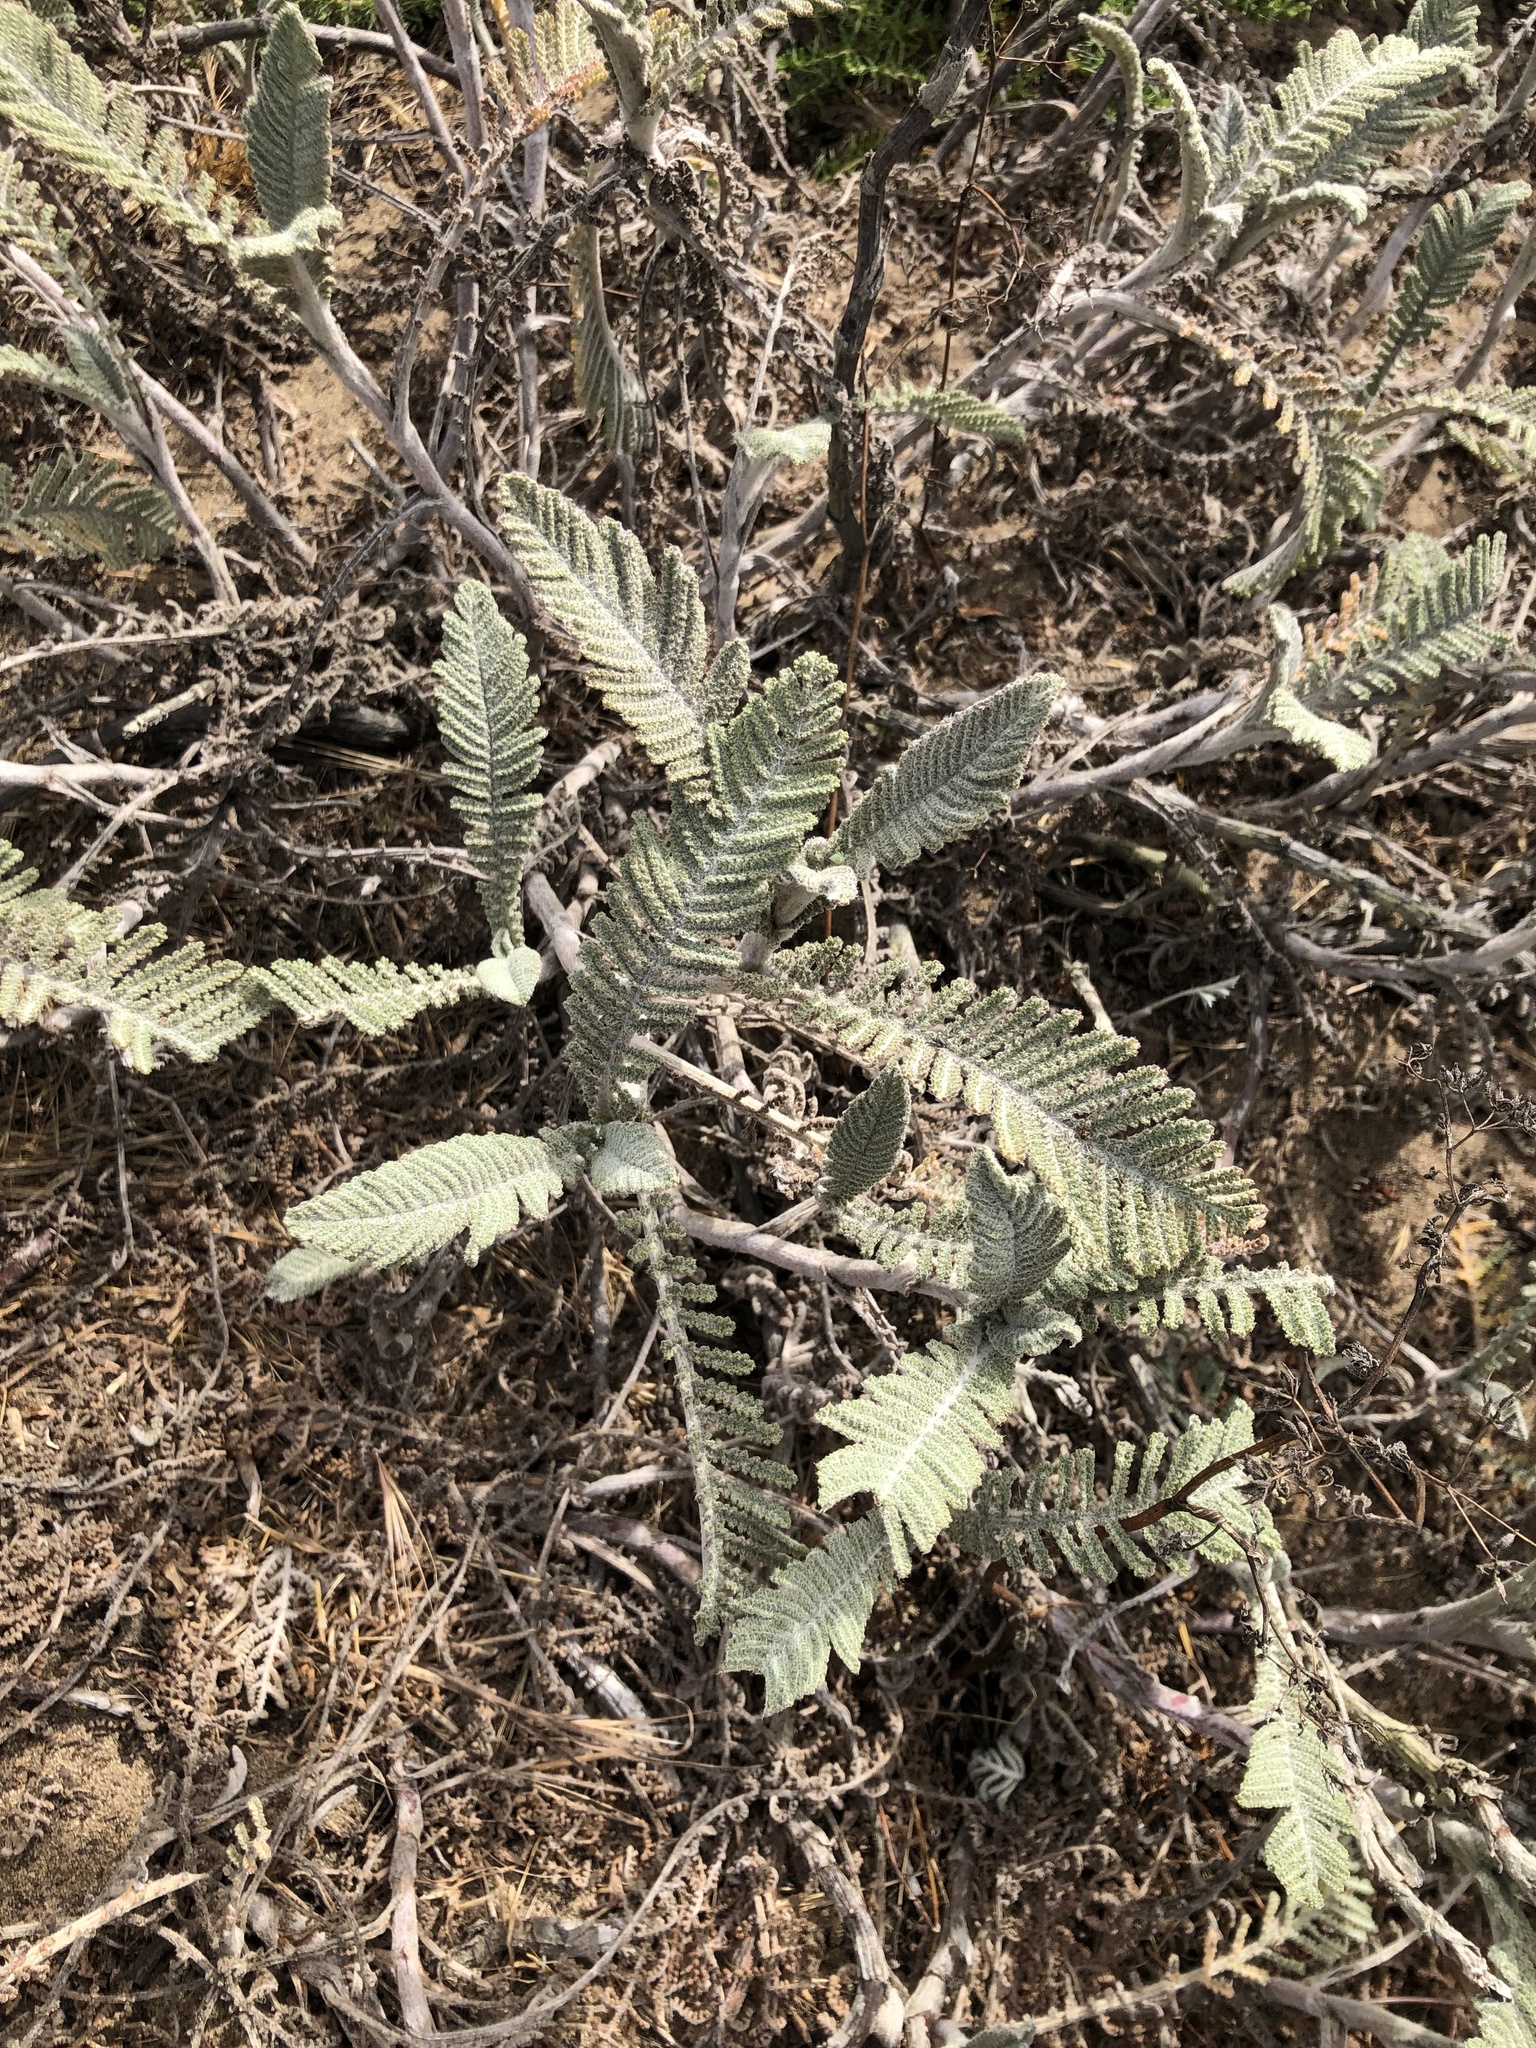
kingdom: Plantae
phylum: Tracheophyta
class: Magnoliopsida
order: Asterales
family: Asteraceae
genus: Tanacetum
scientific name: Tanacetum bipinnatum
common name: Dwarf tansy
